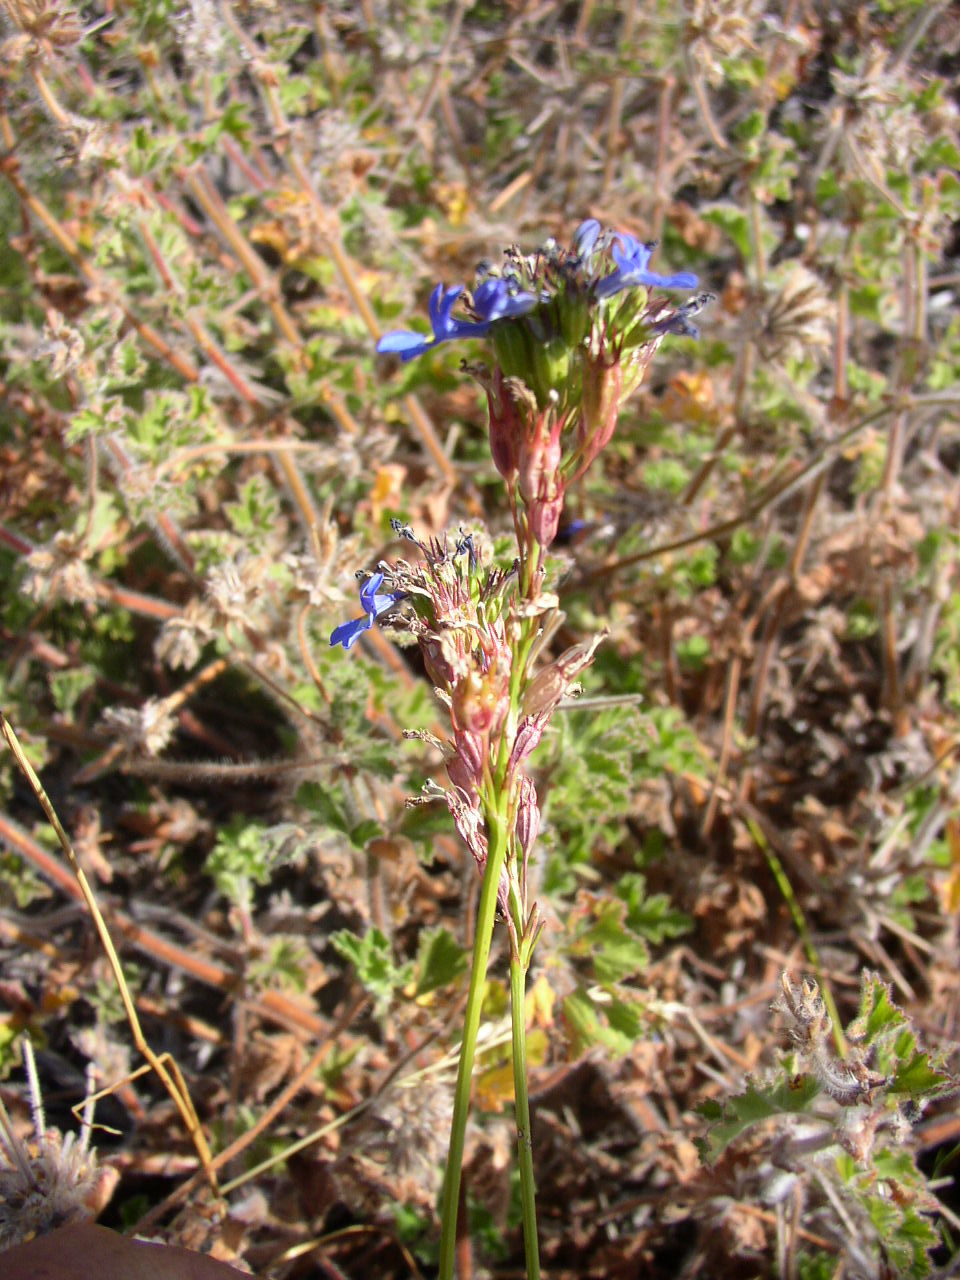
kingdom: Plantae
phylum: Tracheophyta
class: Magnoliopsida
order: Asterales
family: Campanulaceae
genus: Lobelia
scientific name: Lobelia comosa
